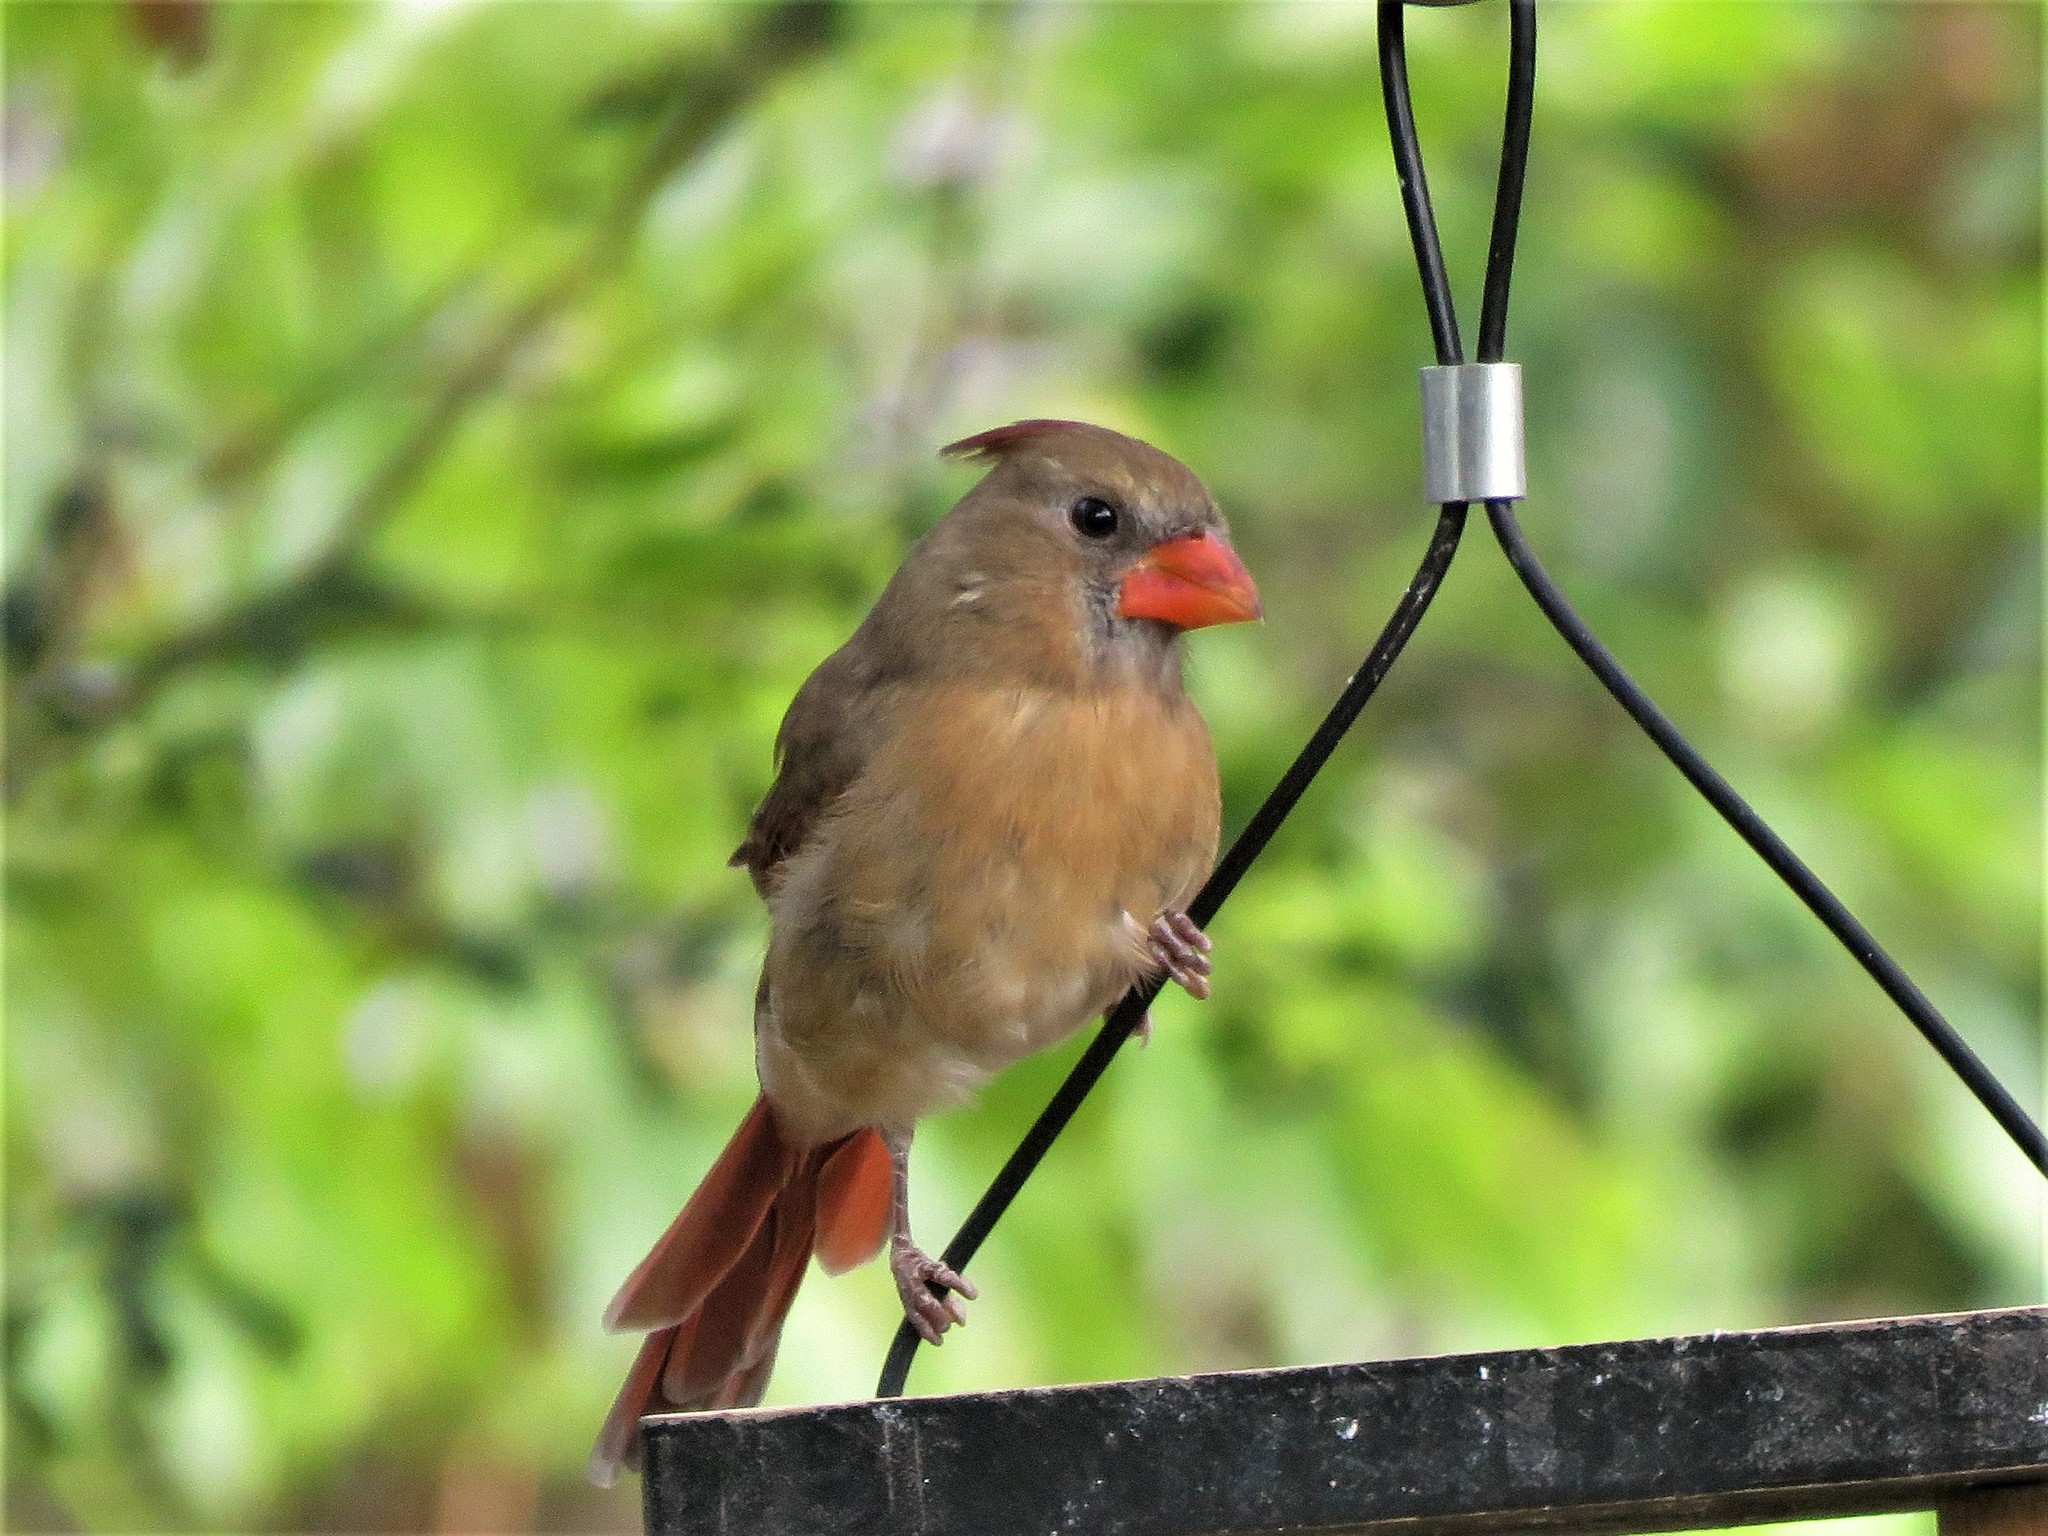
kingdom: Animalia
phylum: Chordata
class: Aves
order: Passeriformes
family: Cardinalidae
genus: Cardinalis
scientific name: Cardinalis cardinalis
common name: Northern cardinal
